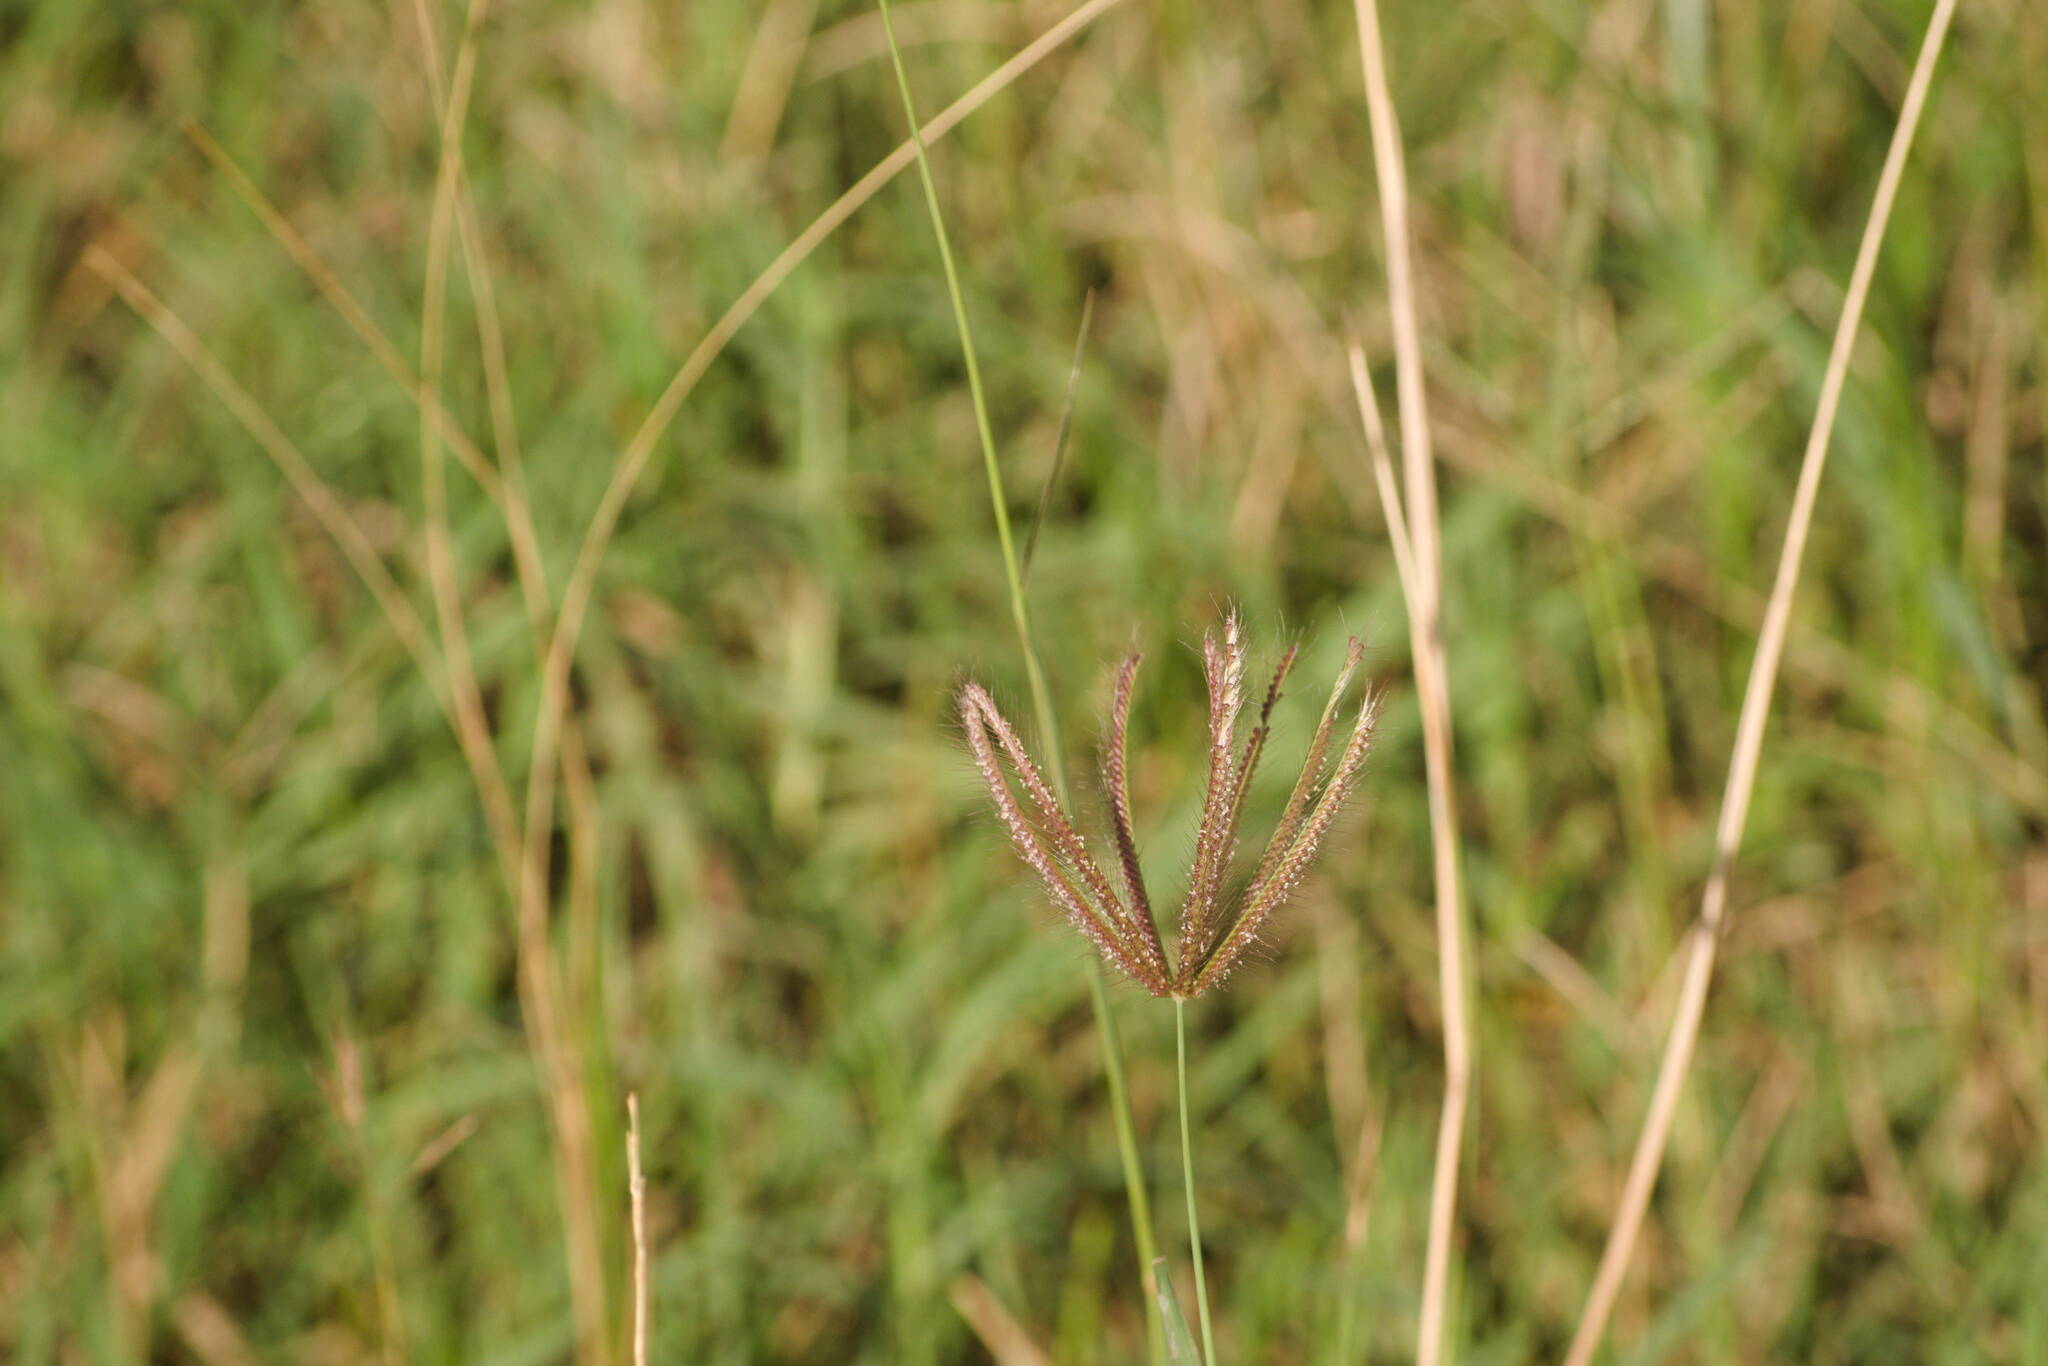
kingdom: Plantae
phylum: Tracheophyta
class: Liliopsida
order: Poales
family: Poaceae
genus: Chloris
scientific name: Chloris barbata
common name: Swollen fingergrass
